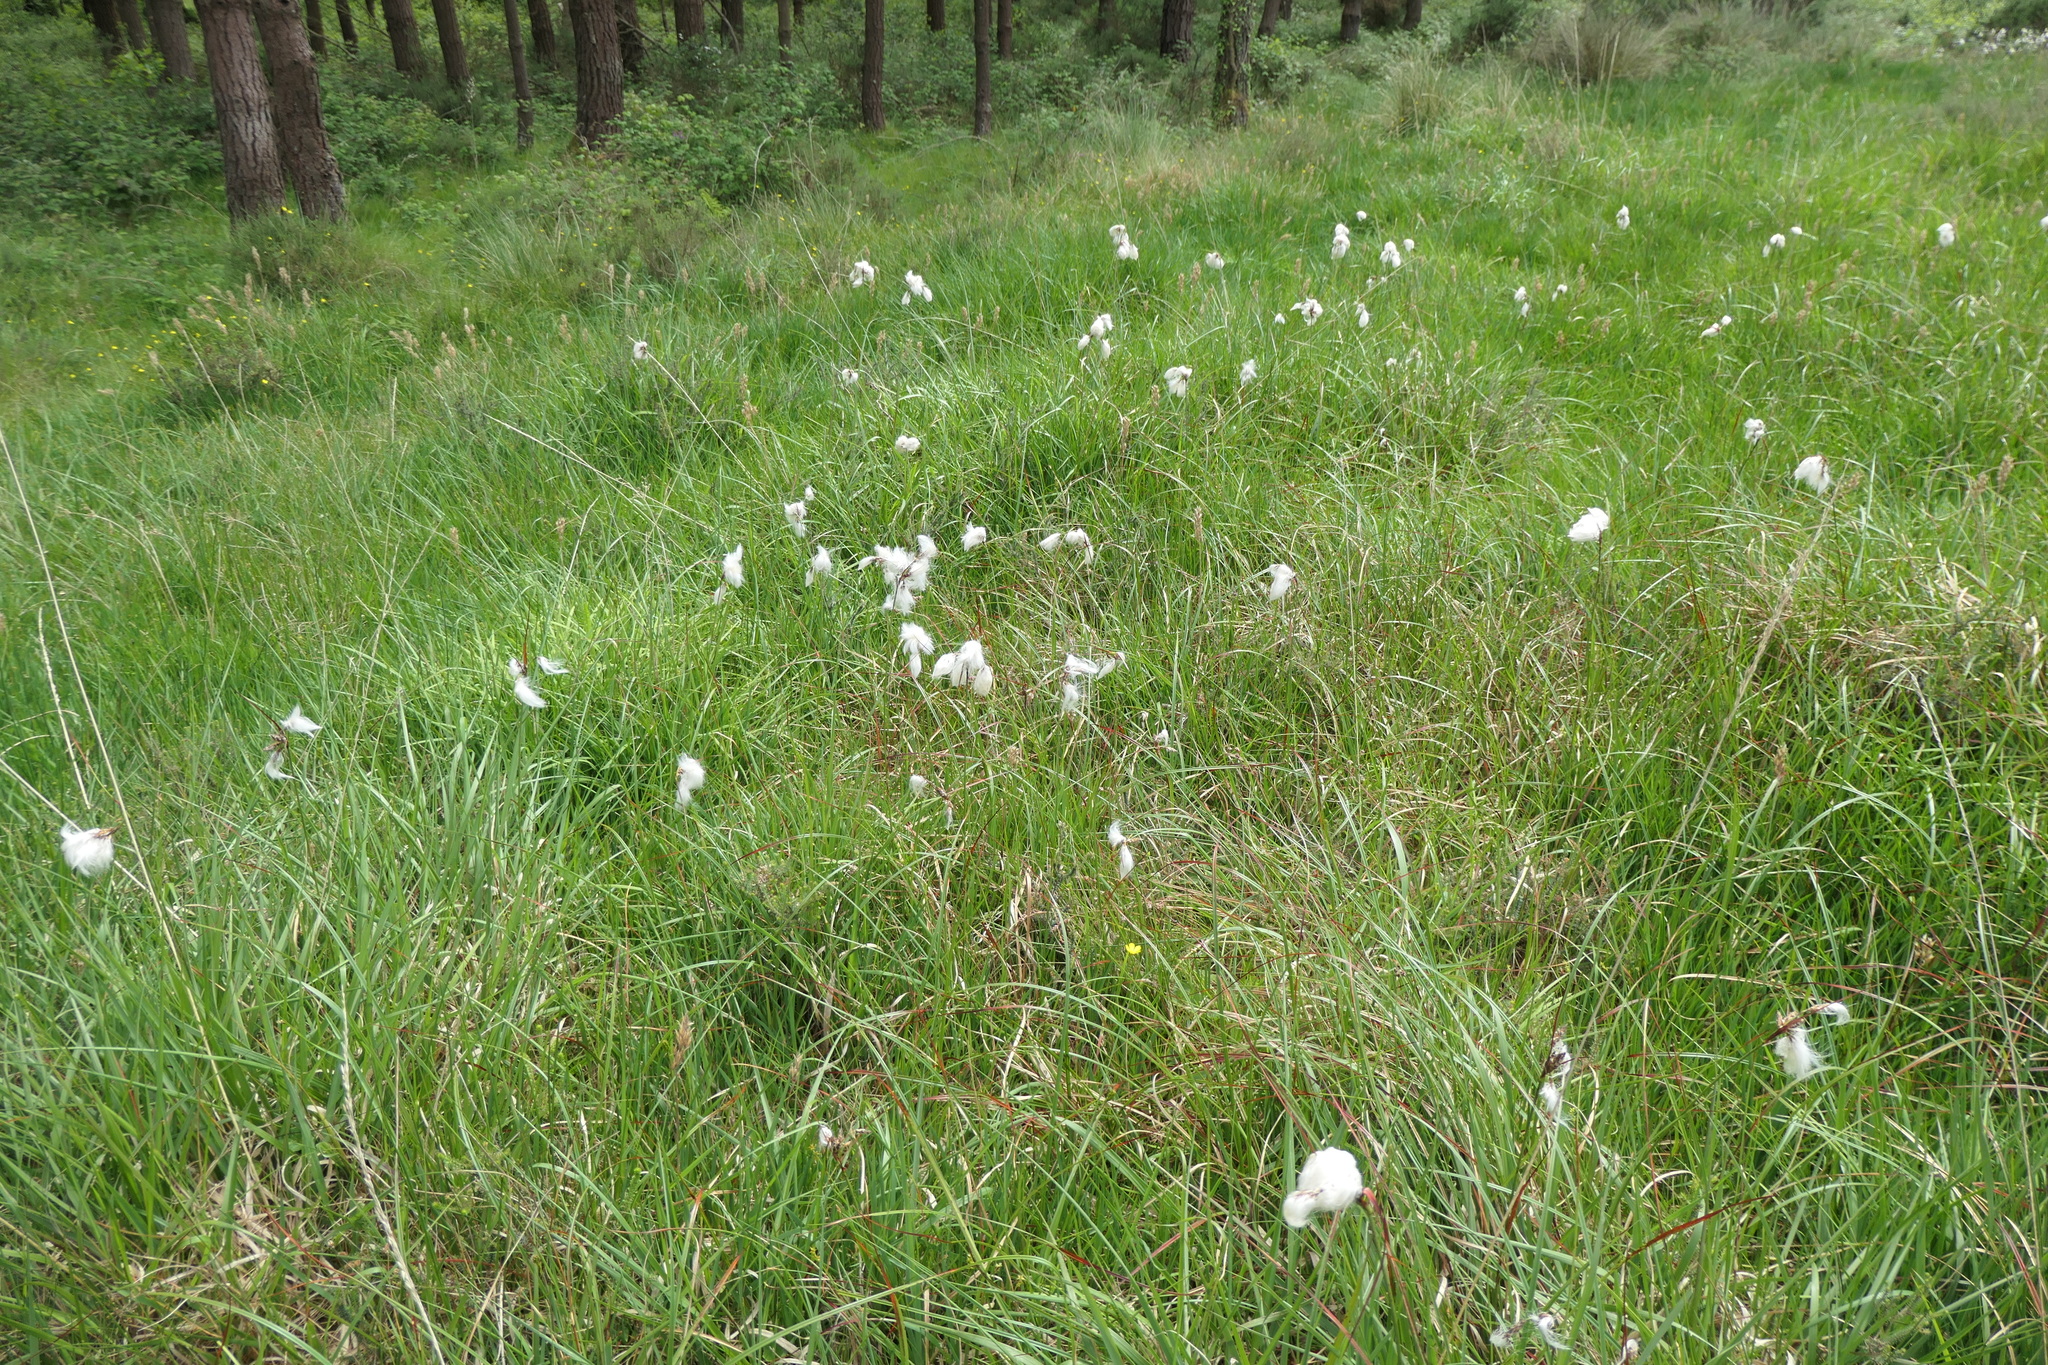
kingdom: Plantae
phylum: Tracheophyta
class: Liliopsida
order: Poales
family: Cyperaceae
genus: Eriophorum
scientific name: Eriophorum angustifolium
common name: Common cottongrass
